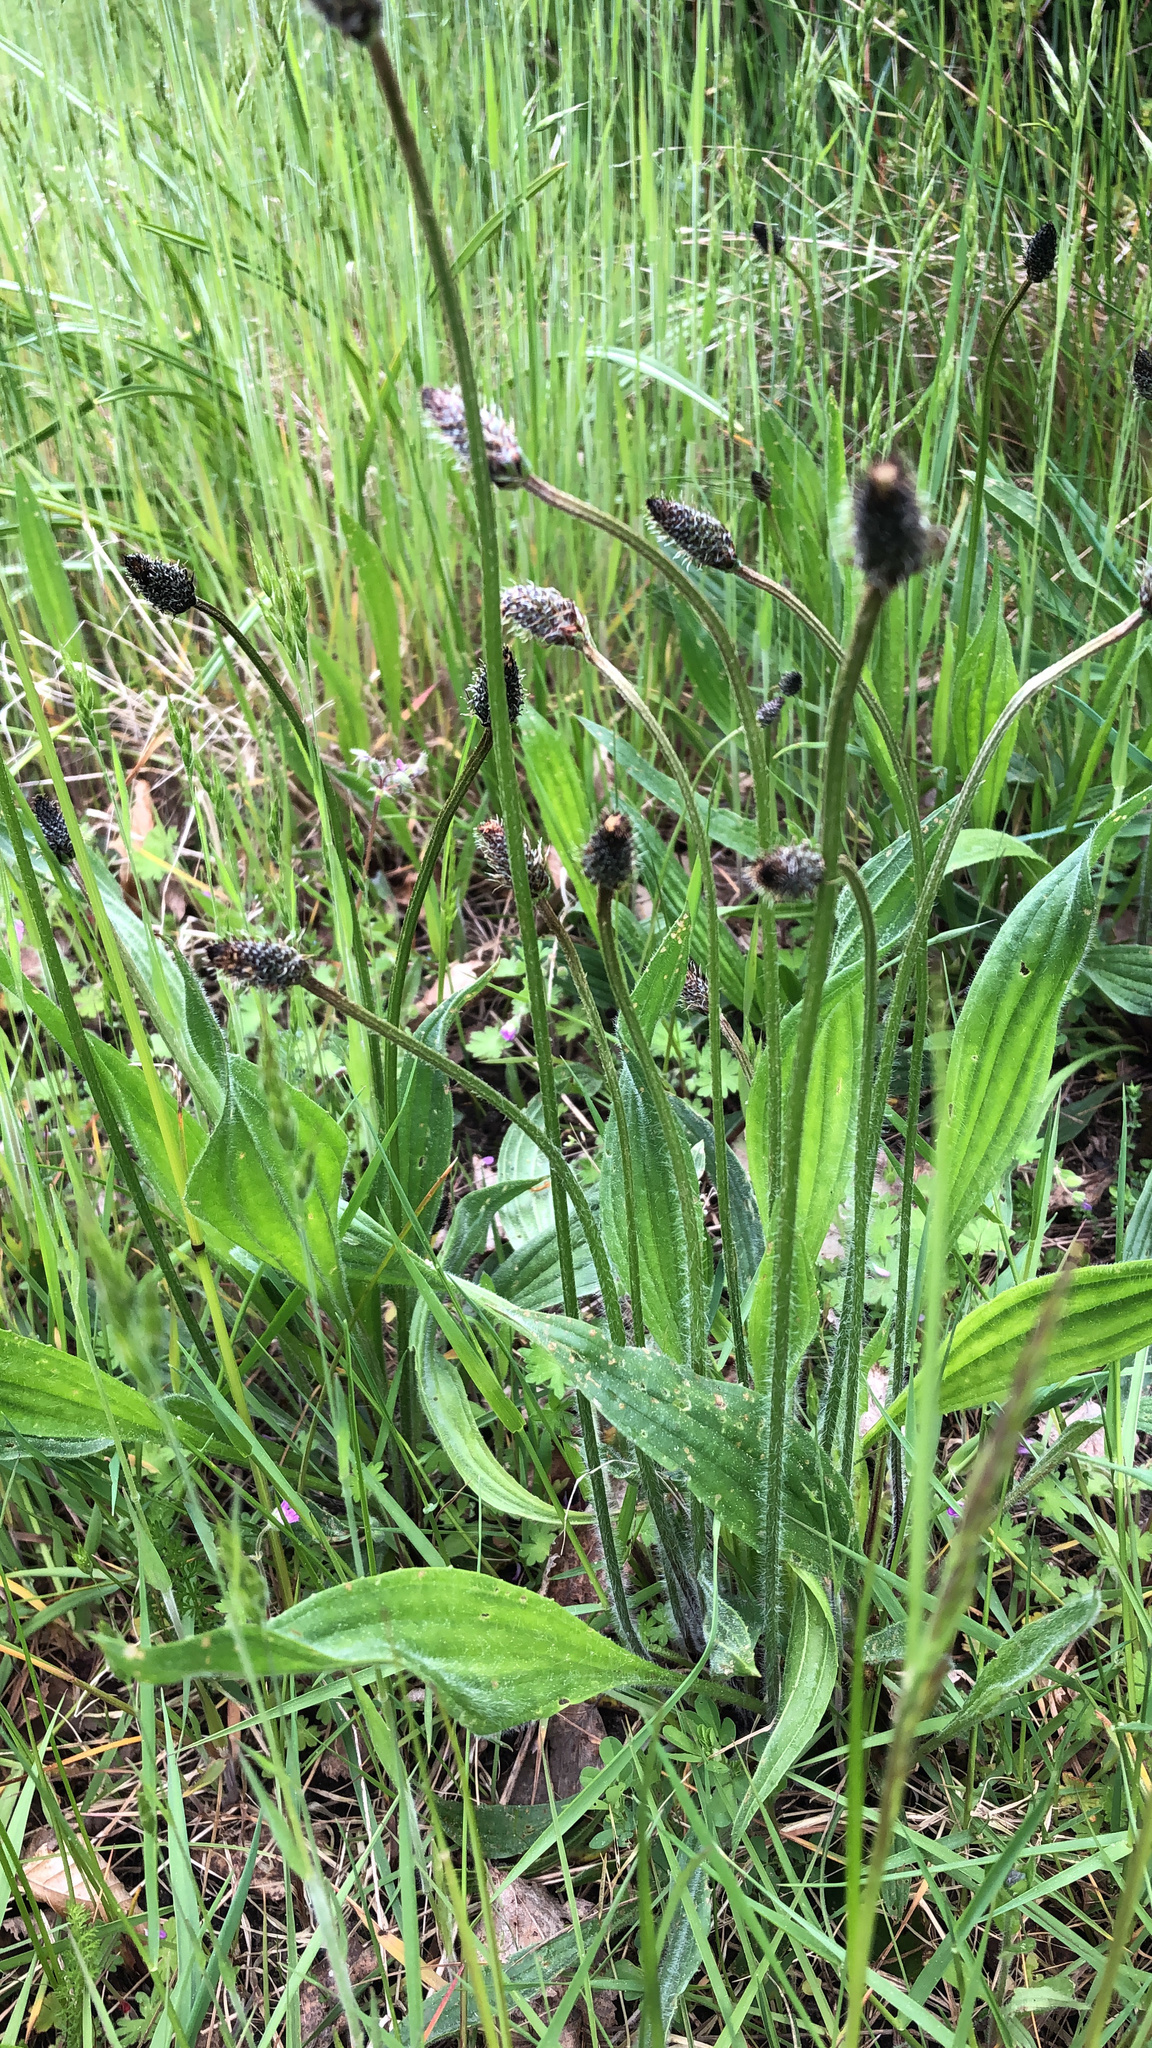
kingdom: Plantae
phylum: Tracheophyta
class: Magnoliopsida
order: Lamiales
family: Plantaginaceae
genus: Plantago
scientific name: Plantago lanceolata
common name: Ribwort plantain
